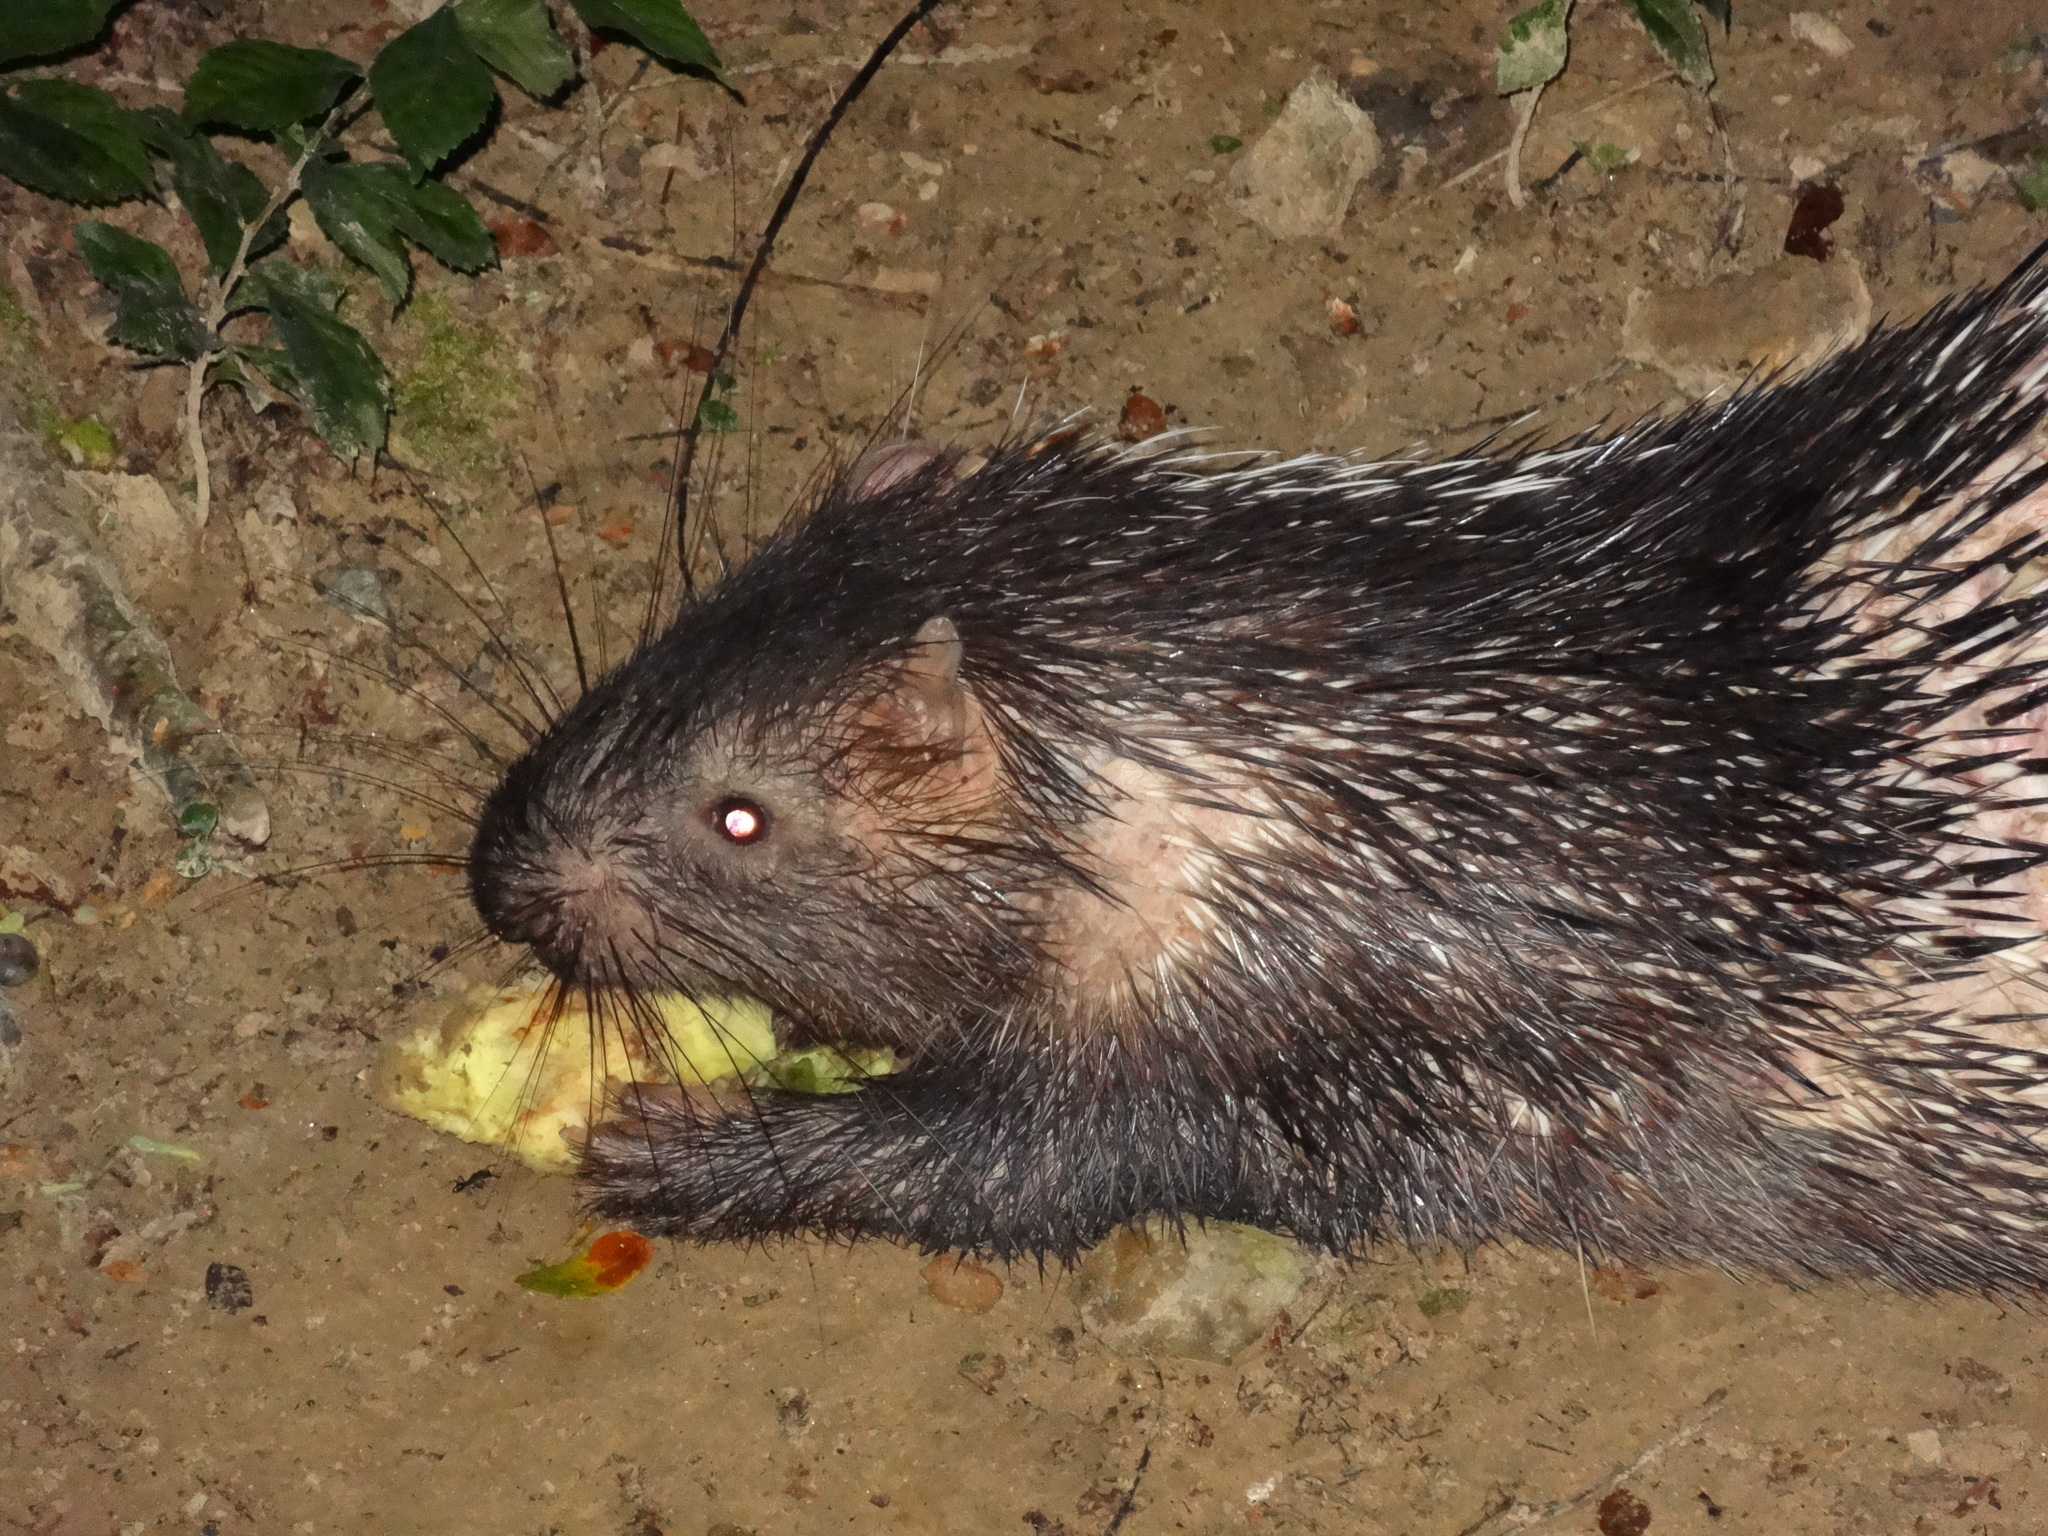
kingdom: Animalia
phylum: Chordata
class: Mammalia
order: Rodentia
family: Hystricidae
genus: Hystrix
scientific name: Hystrix brachyura
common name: Malayan porcupine
